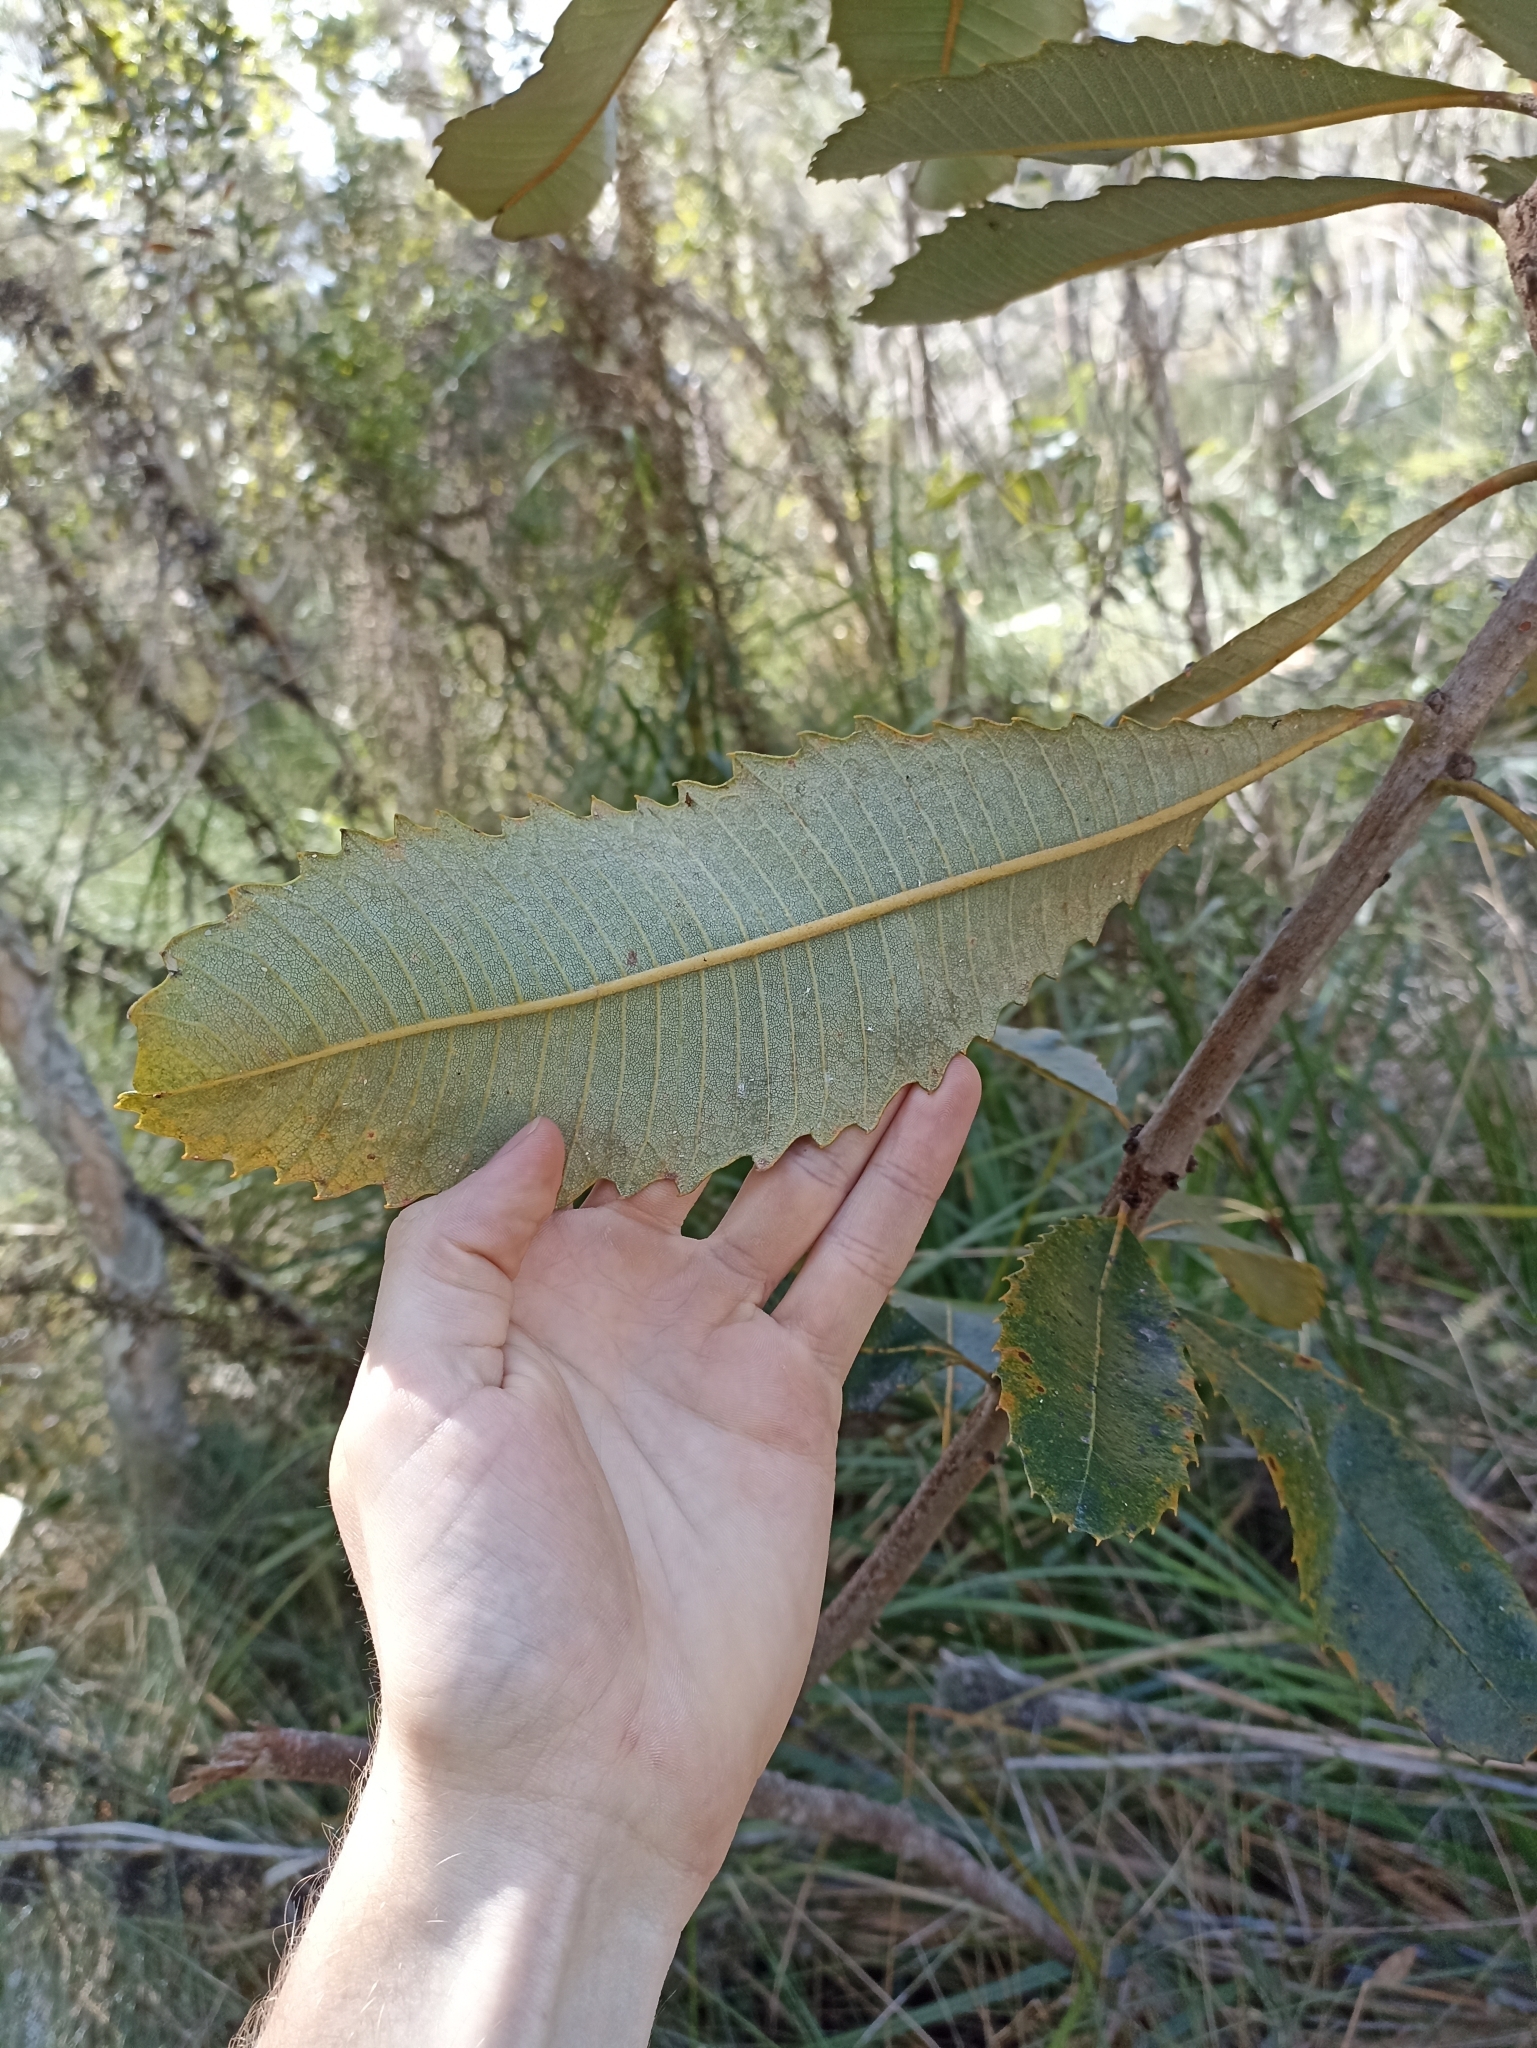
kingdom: Plantae
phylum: Tracheophyta
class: Magnoliopsida
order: Proteales
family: Proteaceae
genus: Banksia
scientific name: Banksia robur
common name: Broadleaf banksia
